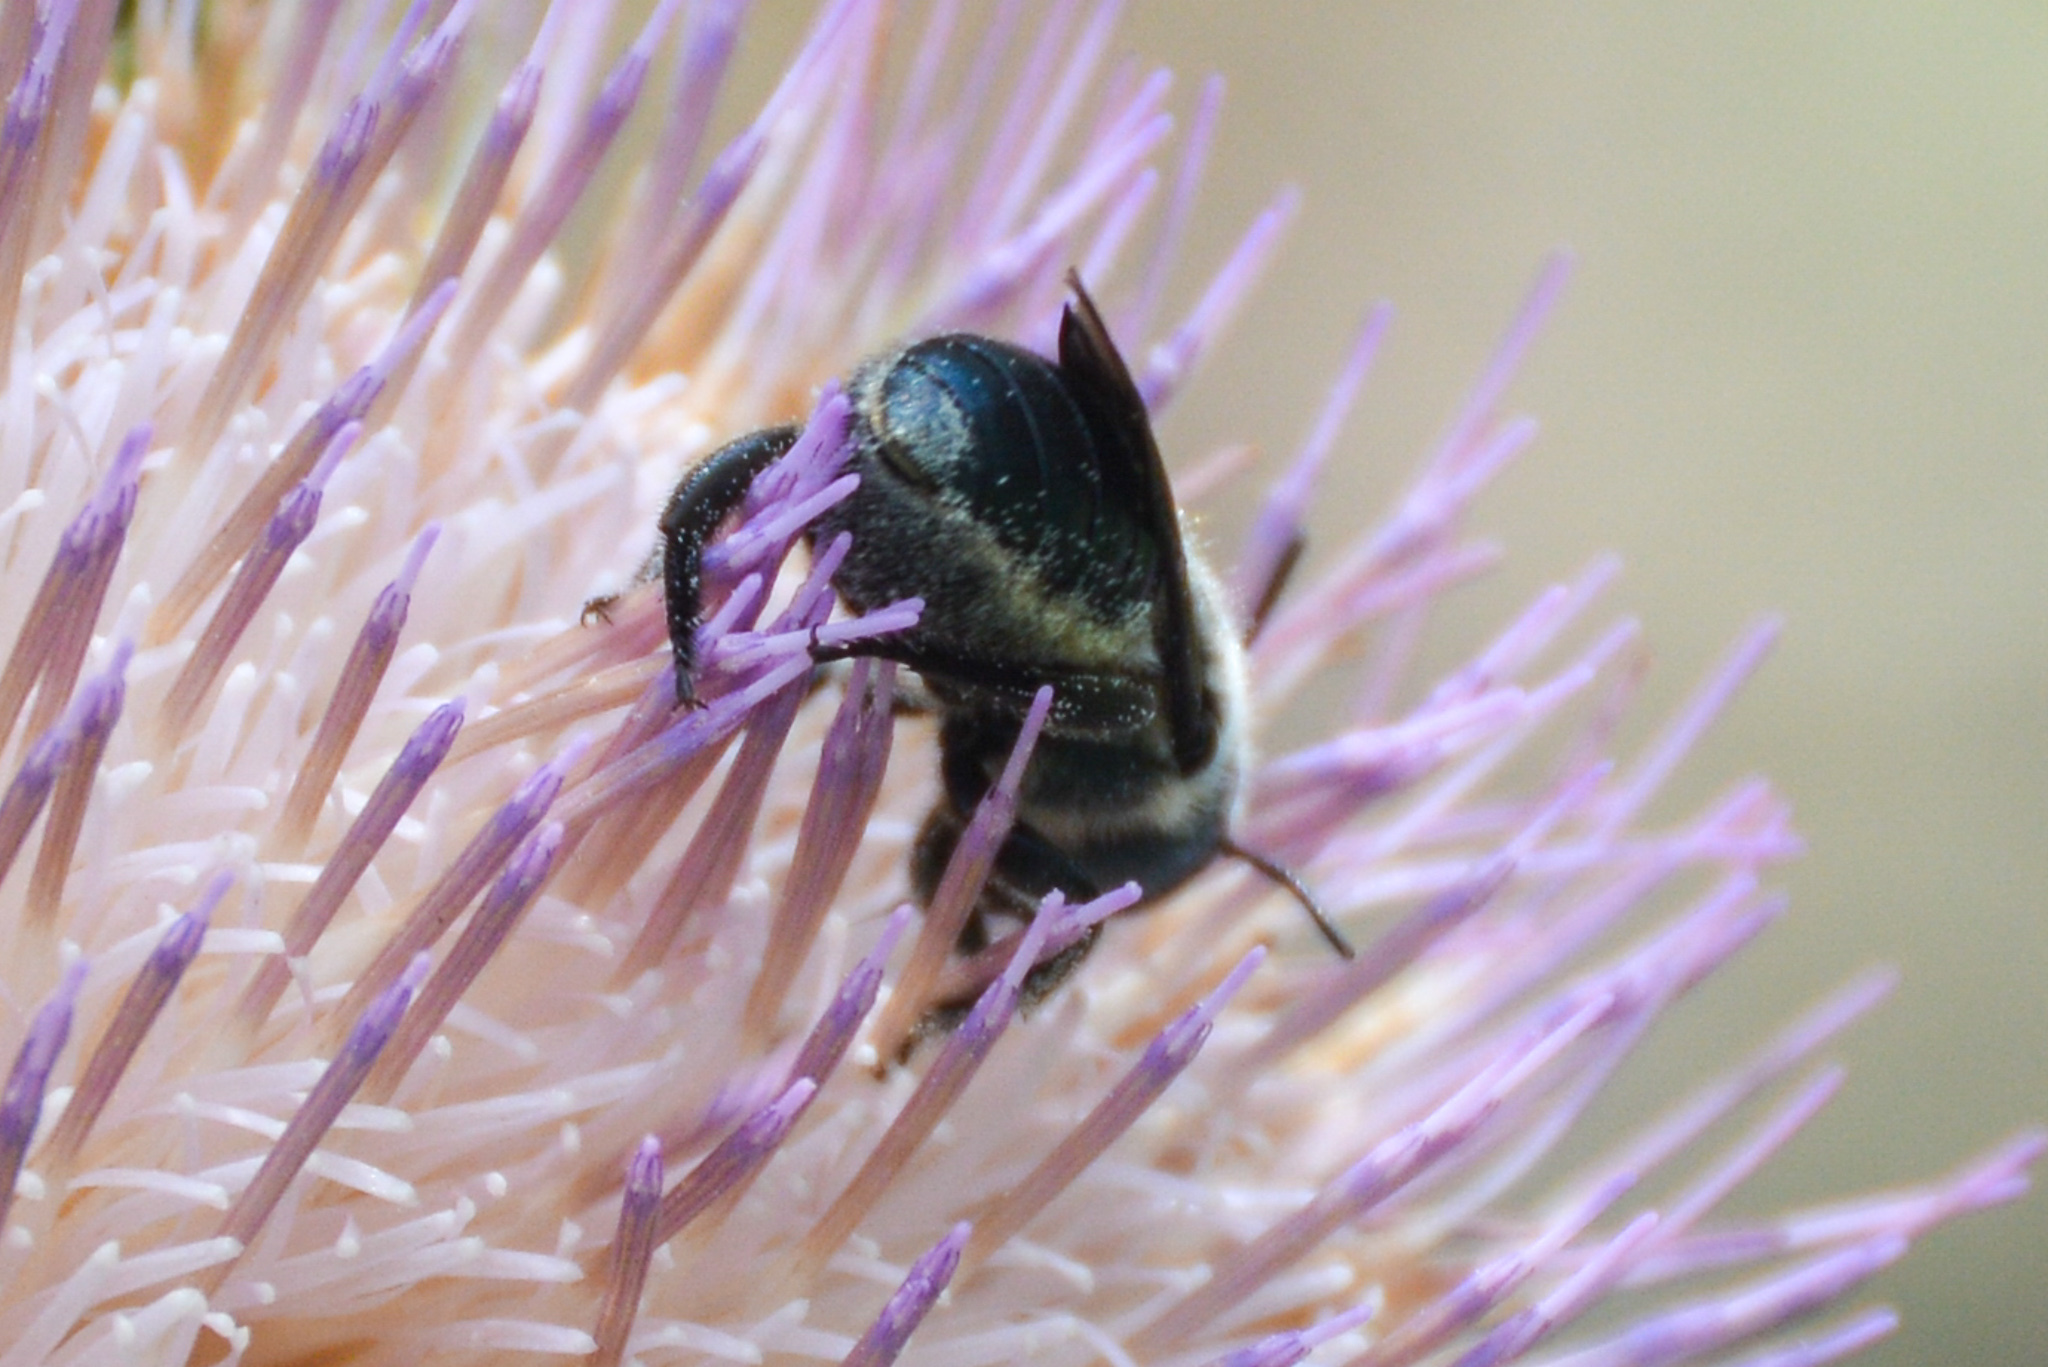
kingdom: Animalia
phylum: Arthropoda
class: Insecta
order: Hymenoptera
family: Megachilidae
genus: Osmia
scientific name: Osmia chalybea
